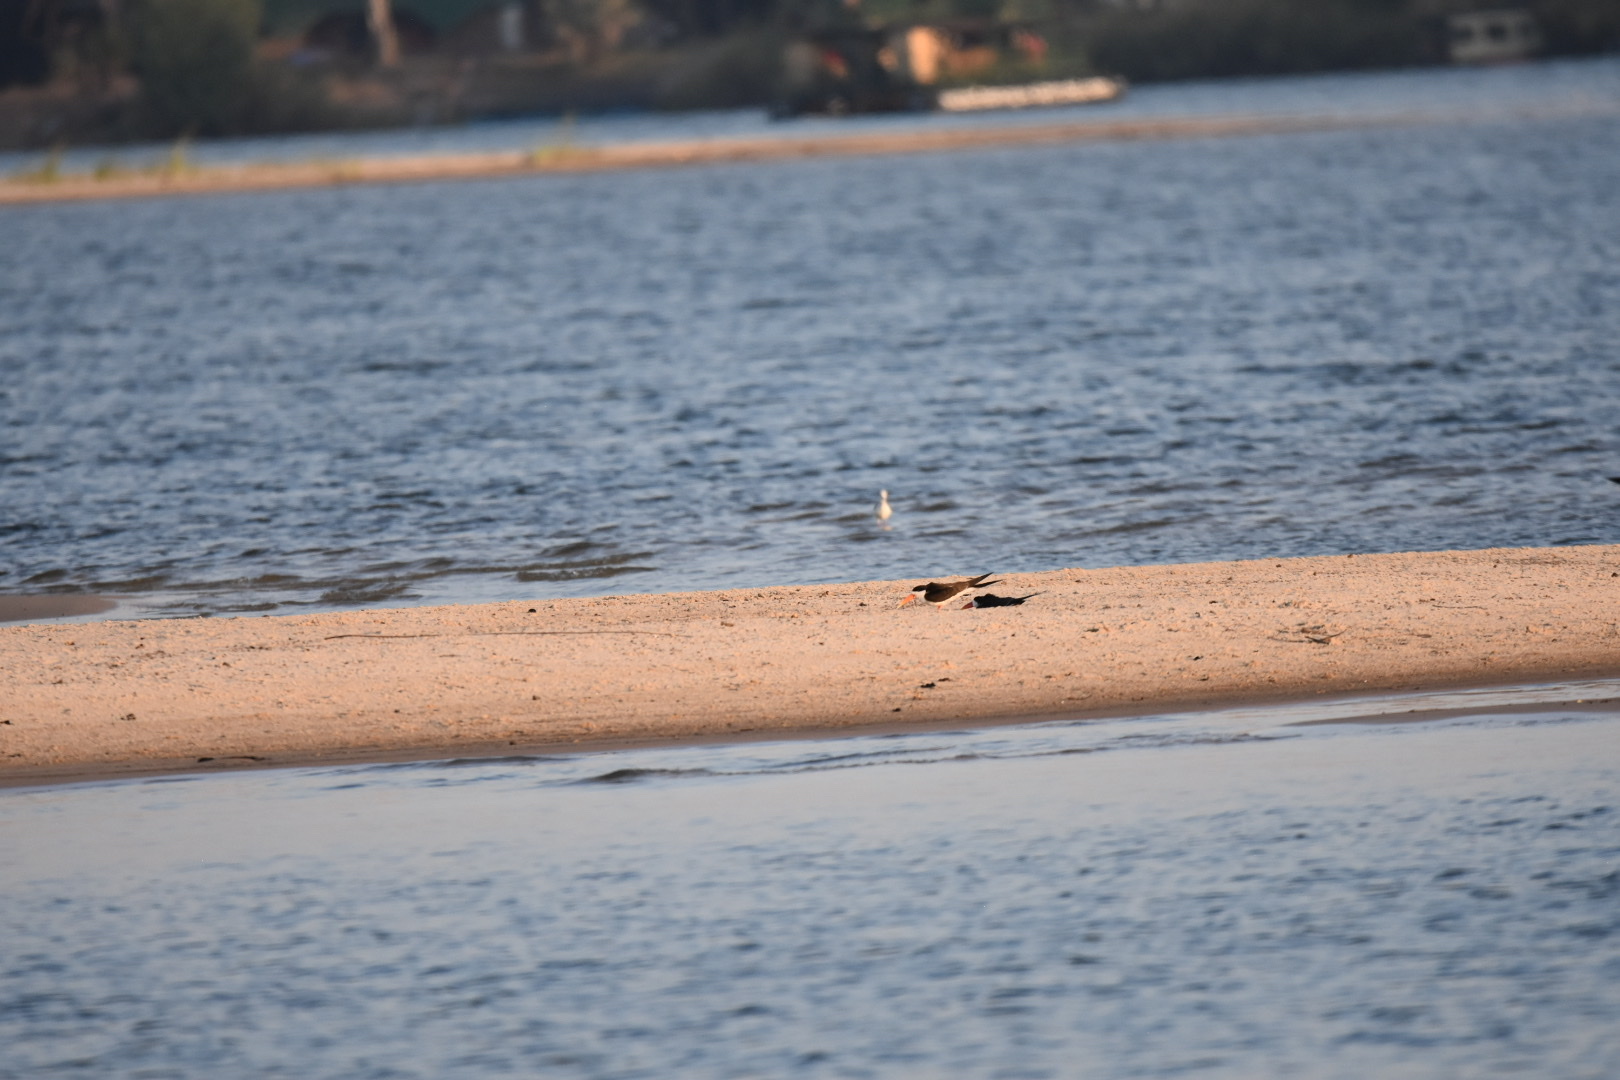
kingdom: Animalia
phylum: Chordata
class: Aves
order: Charadriiformes
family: Laridae
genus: Rynchops
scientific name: Rynchops flavirostris
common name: African skimmer
